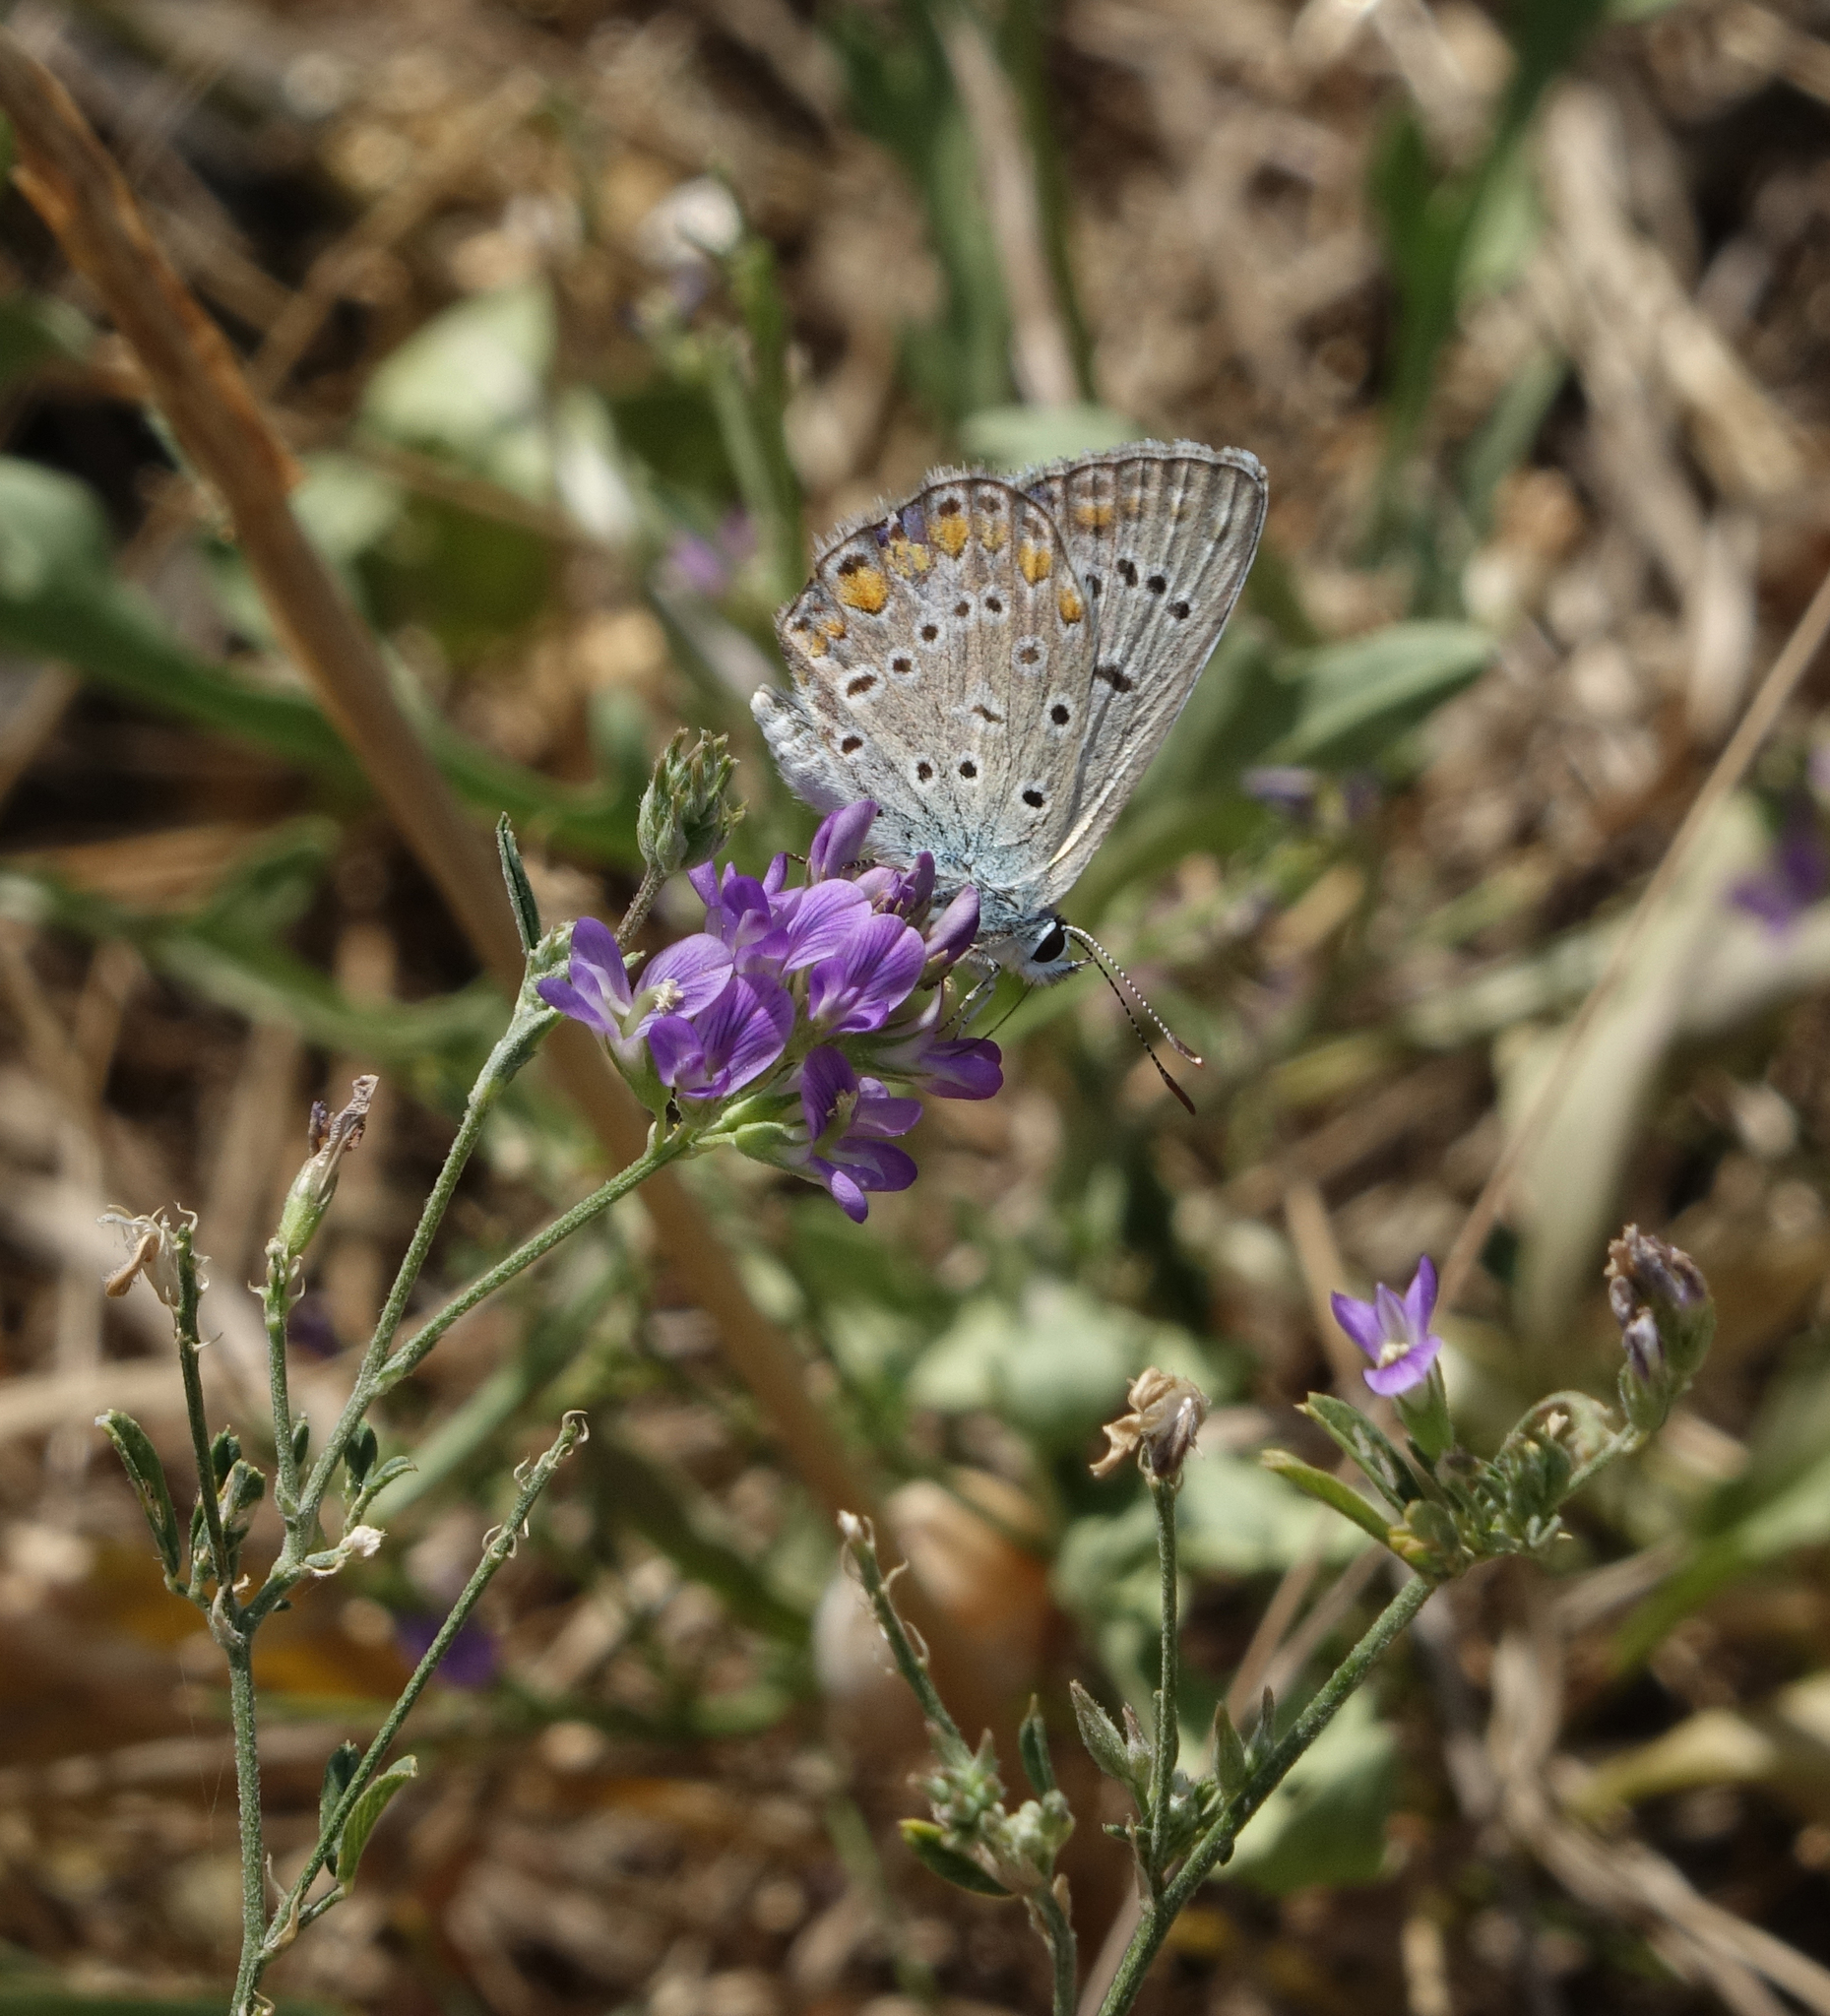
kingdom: Animalia
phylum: Arthropoda
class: Insecta
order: Lepidoptera
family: Lycaenidae
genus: Polyommatus
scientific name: Polyommatus icarus
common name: Common blue
